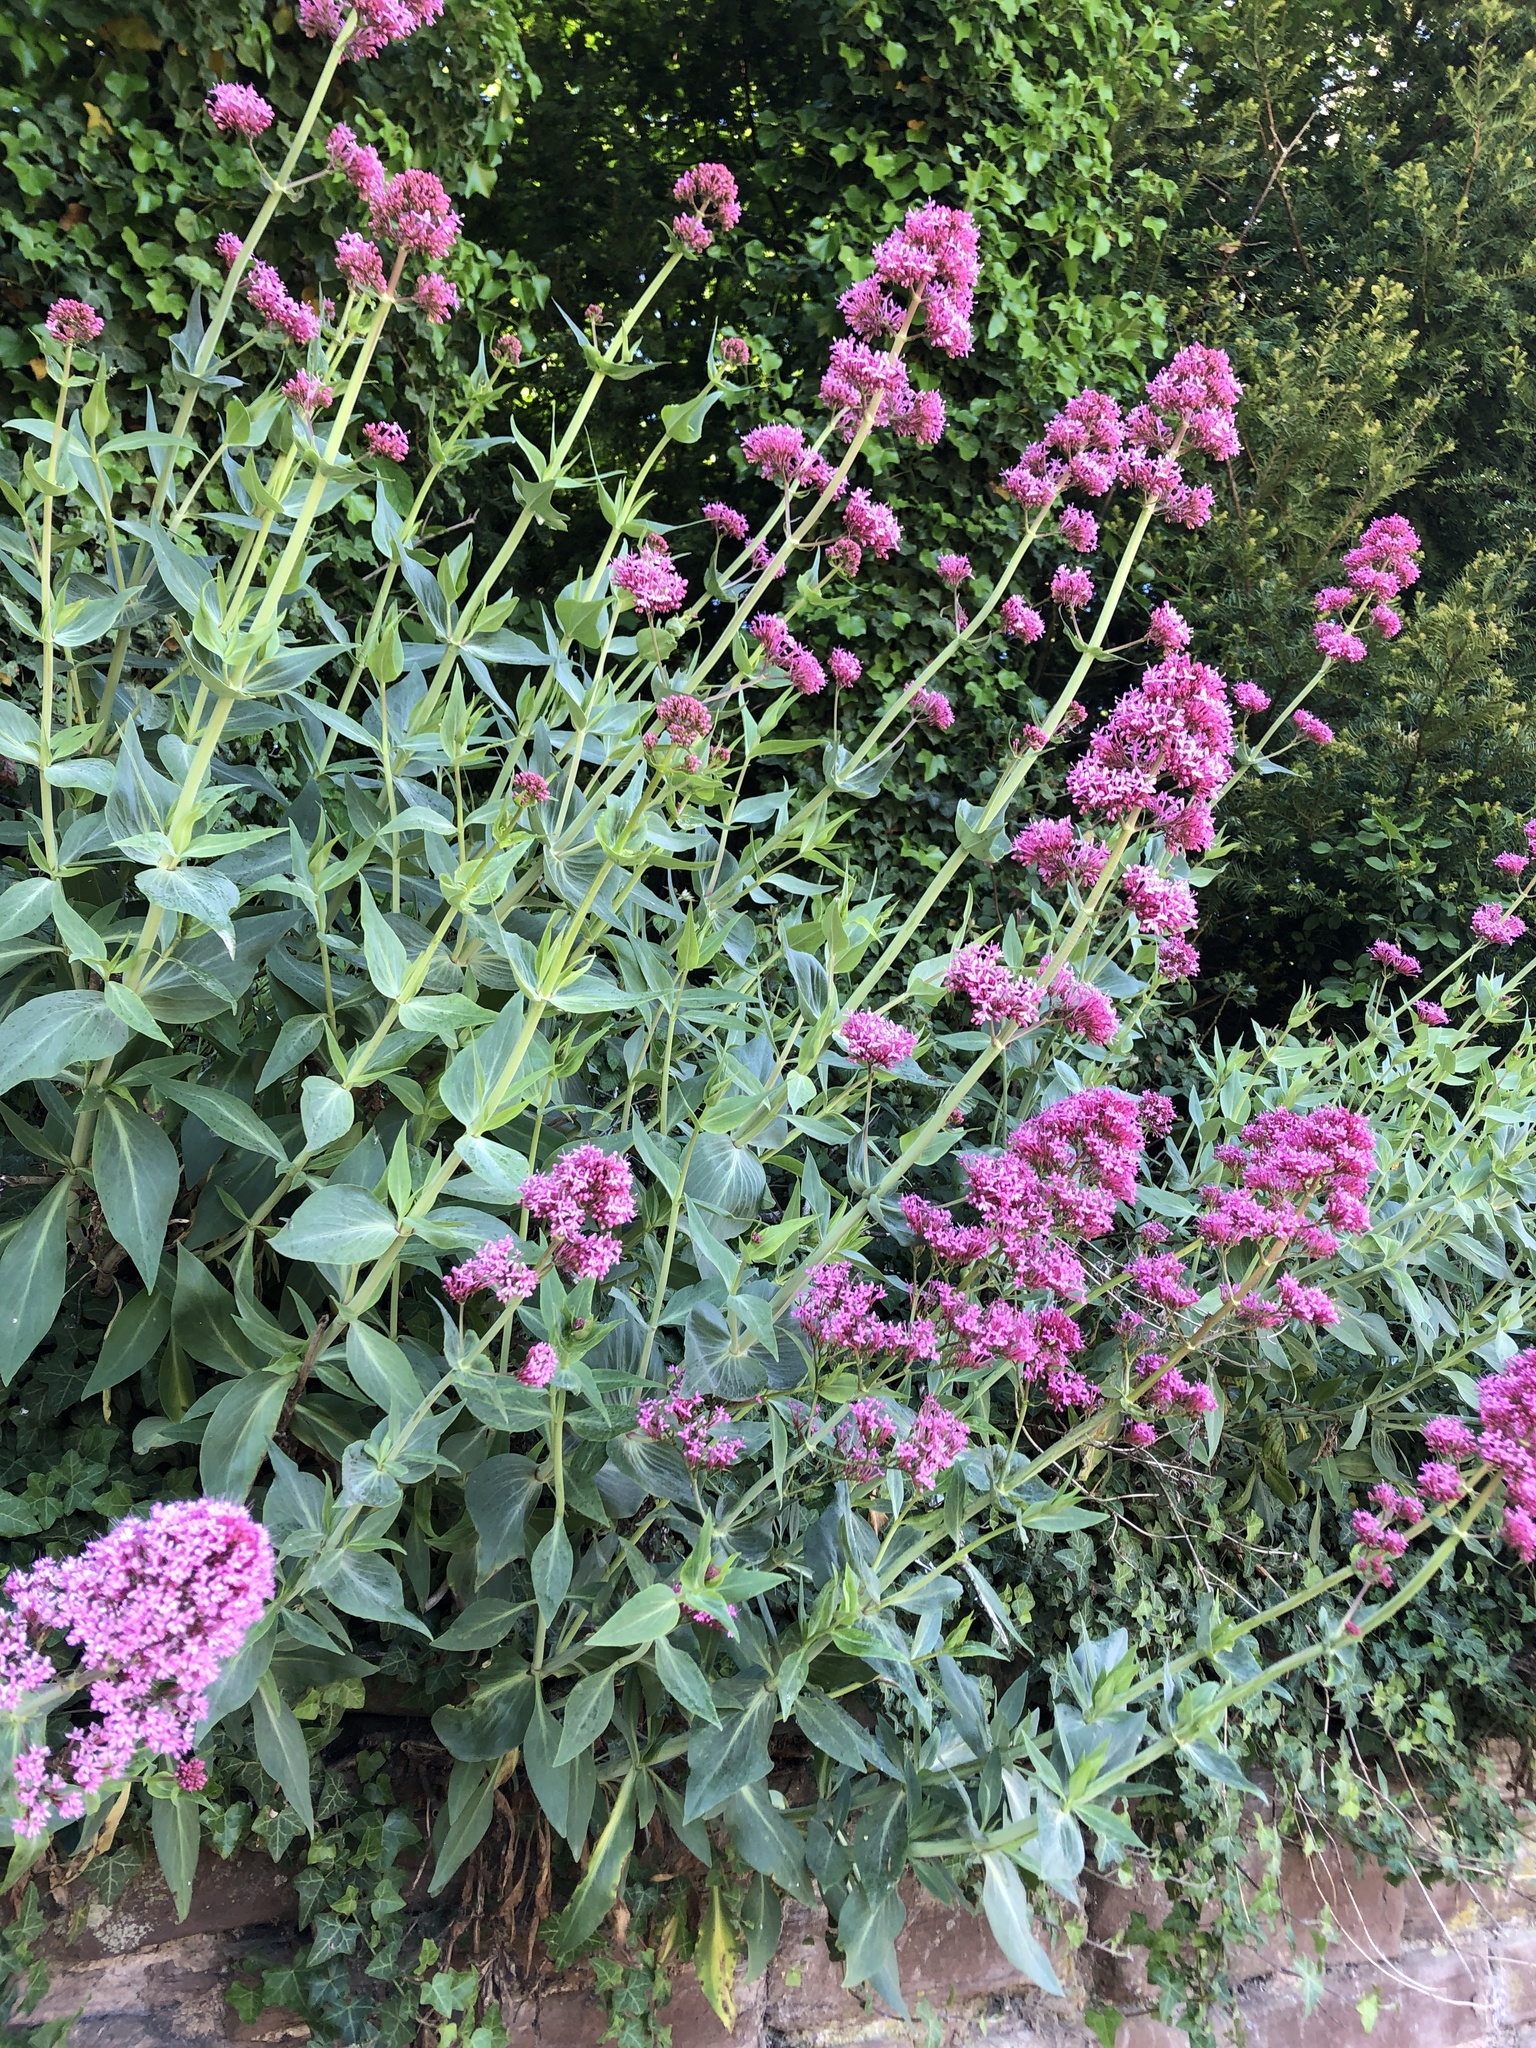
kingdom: Plantae
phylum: Tracheophyta
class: Magnoliopsida
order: Dipsacales
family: Caprifoliaceae
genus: Centranthus
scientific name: Centranthus ruber
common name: Red valerian
